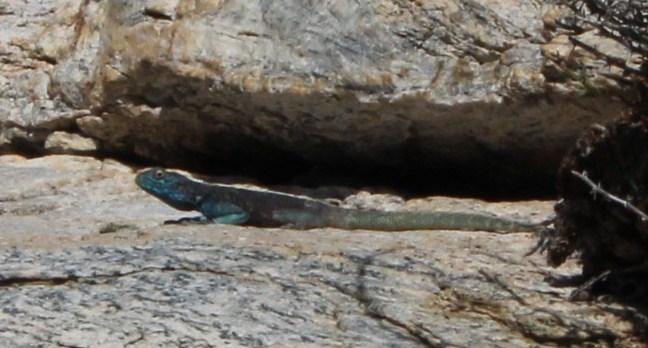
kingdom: Animalia
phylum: Chordata
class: Squamata
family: Agamidae
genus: Agama
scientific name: Agama atra
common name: Southern african rock agama
